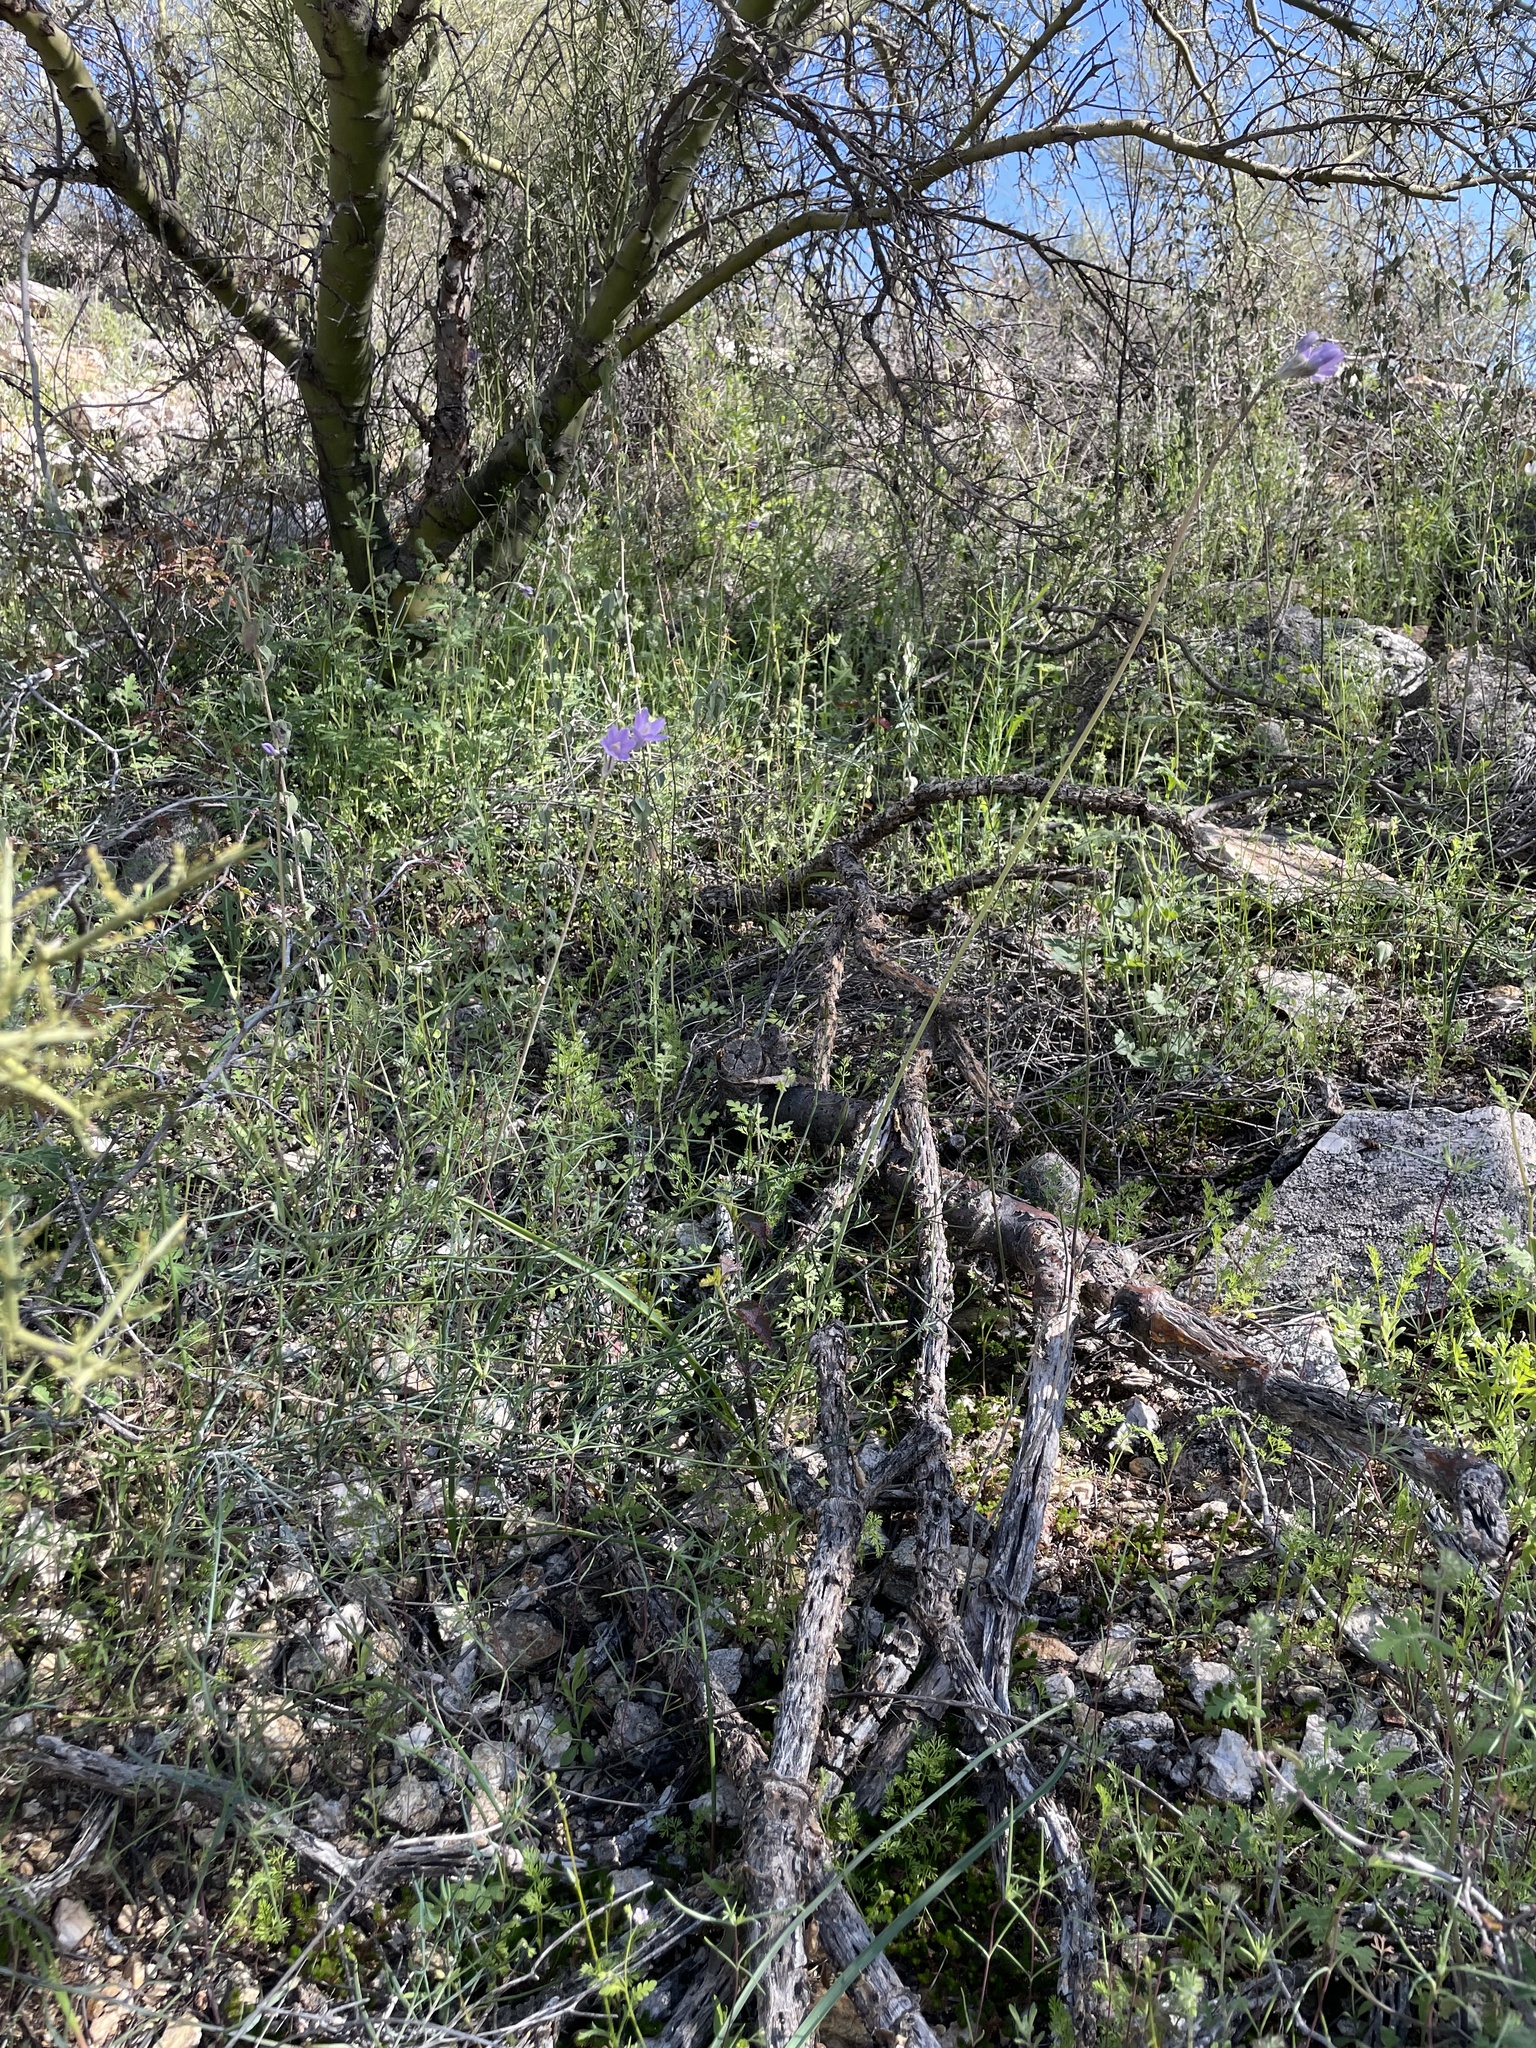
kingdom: Plantae
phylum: Tracheophyta
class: Liliopsida
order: Asparagales
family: Asparagaceae
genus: Dipterostemon
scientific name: Dipterostemon capitatus
